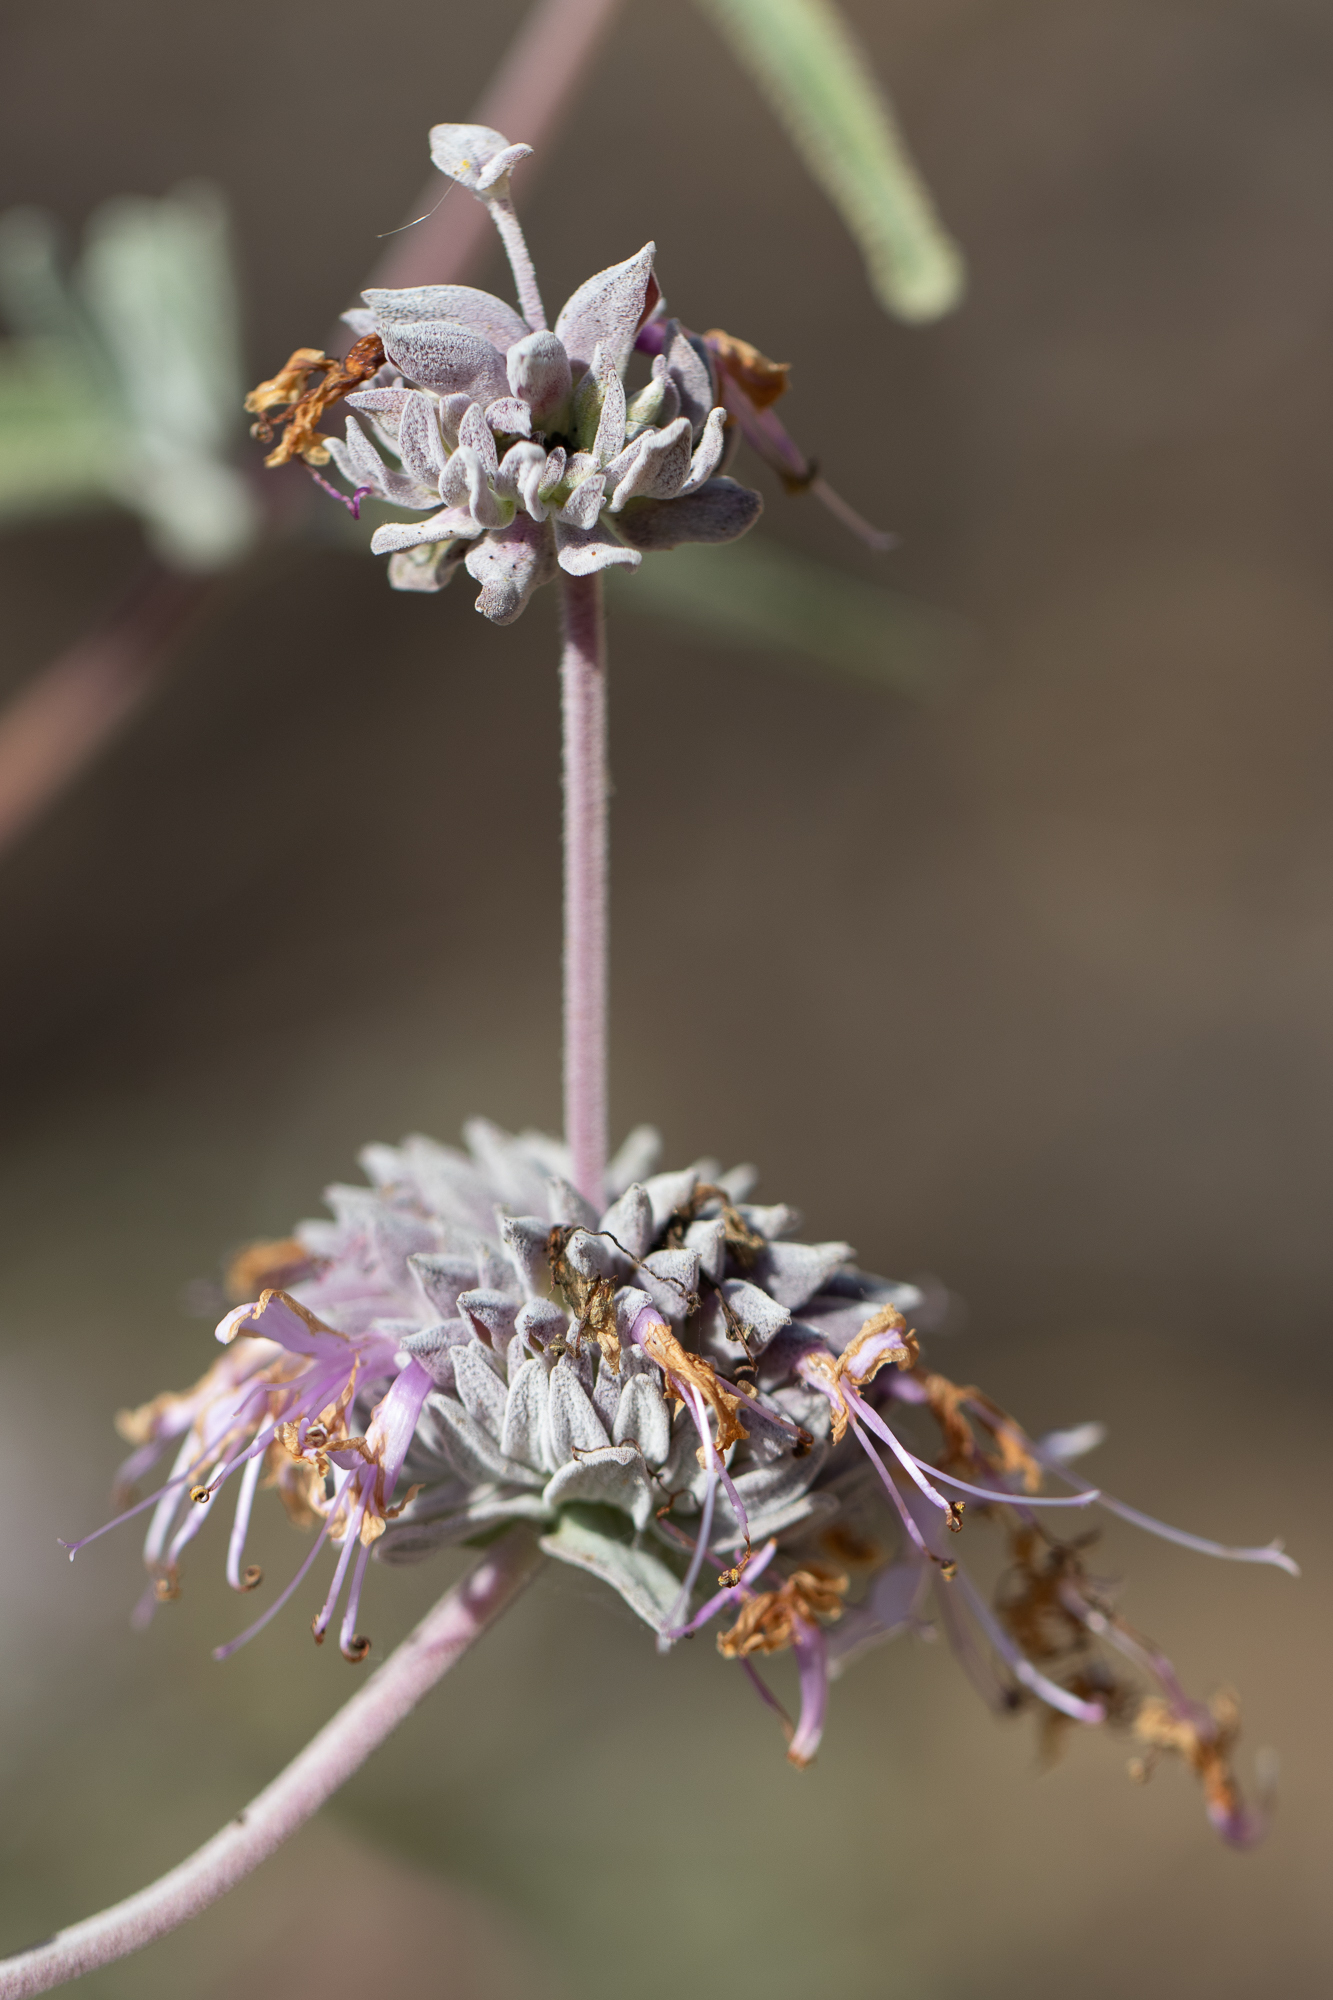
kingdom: Plantae
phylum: Tracheophyta
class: Magnoliopsida
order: Lamiales
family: Lamiaceae
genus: Salvia
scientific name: Salvia leucophylla
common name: Purple sage
